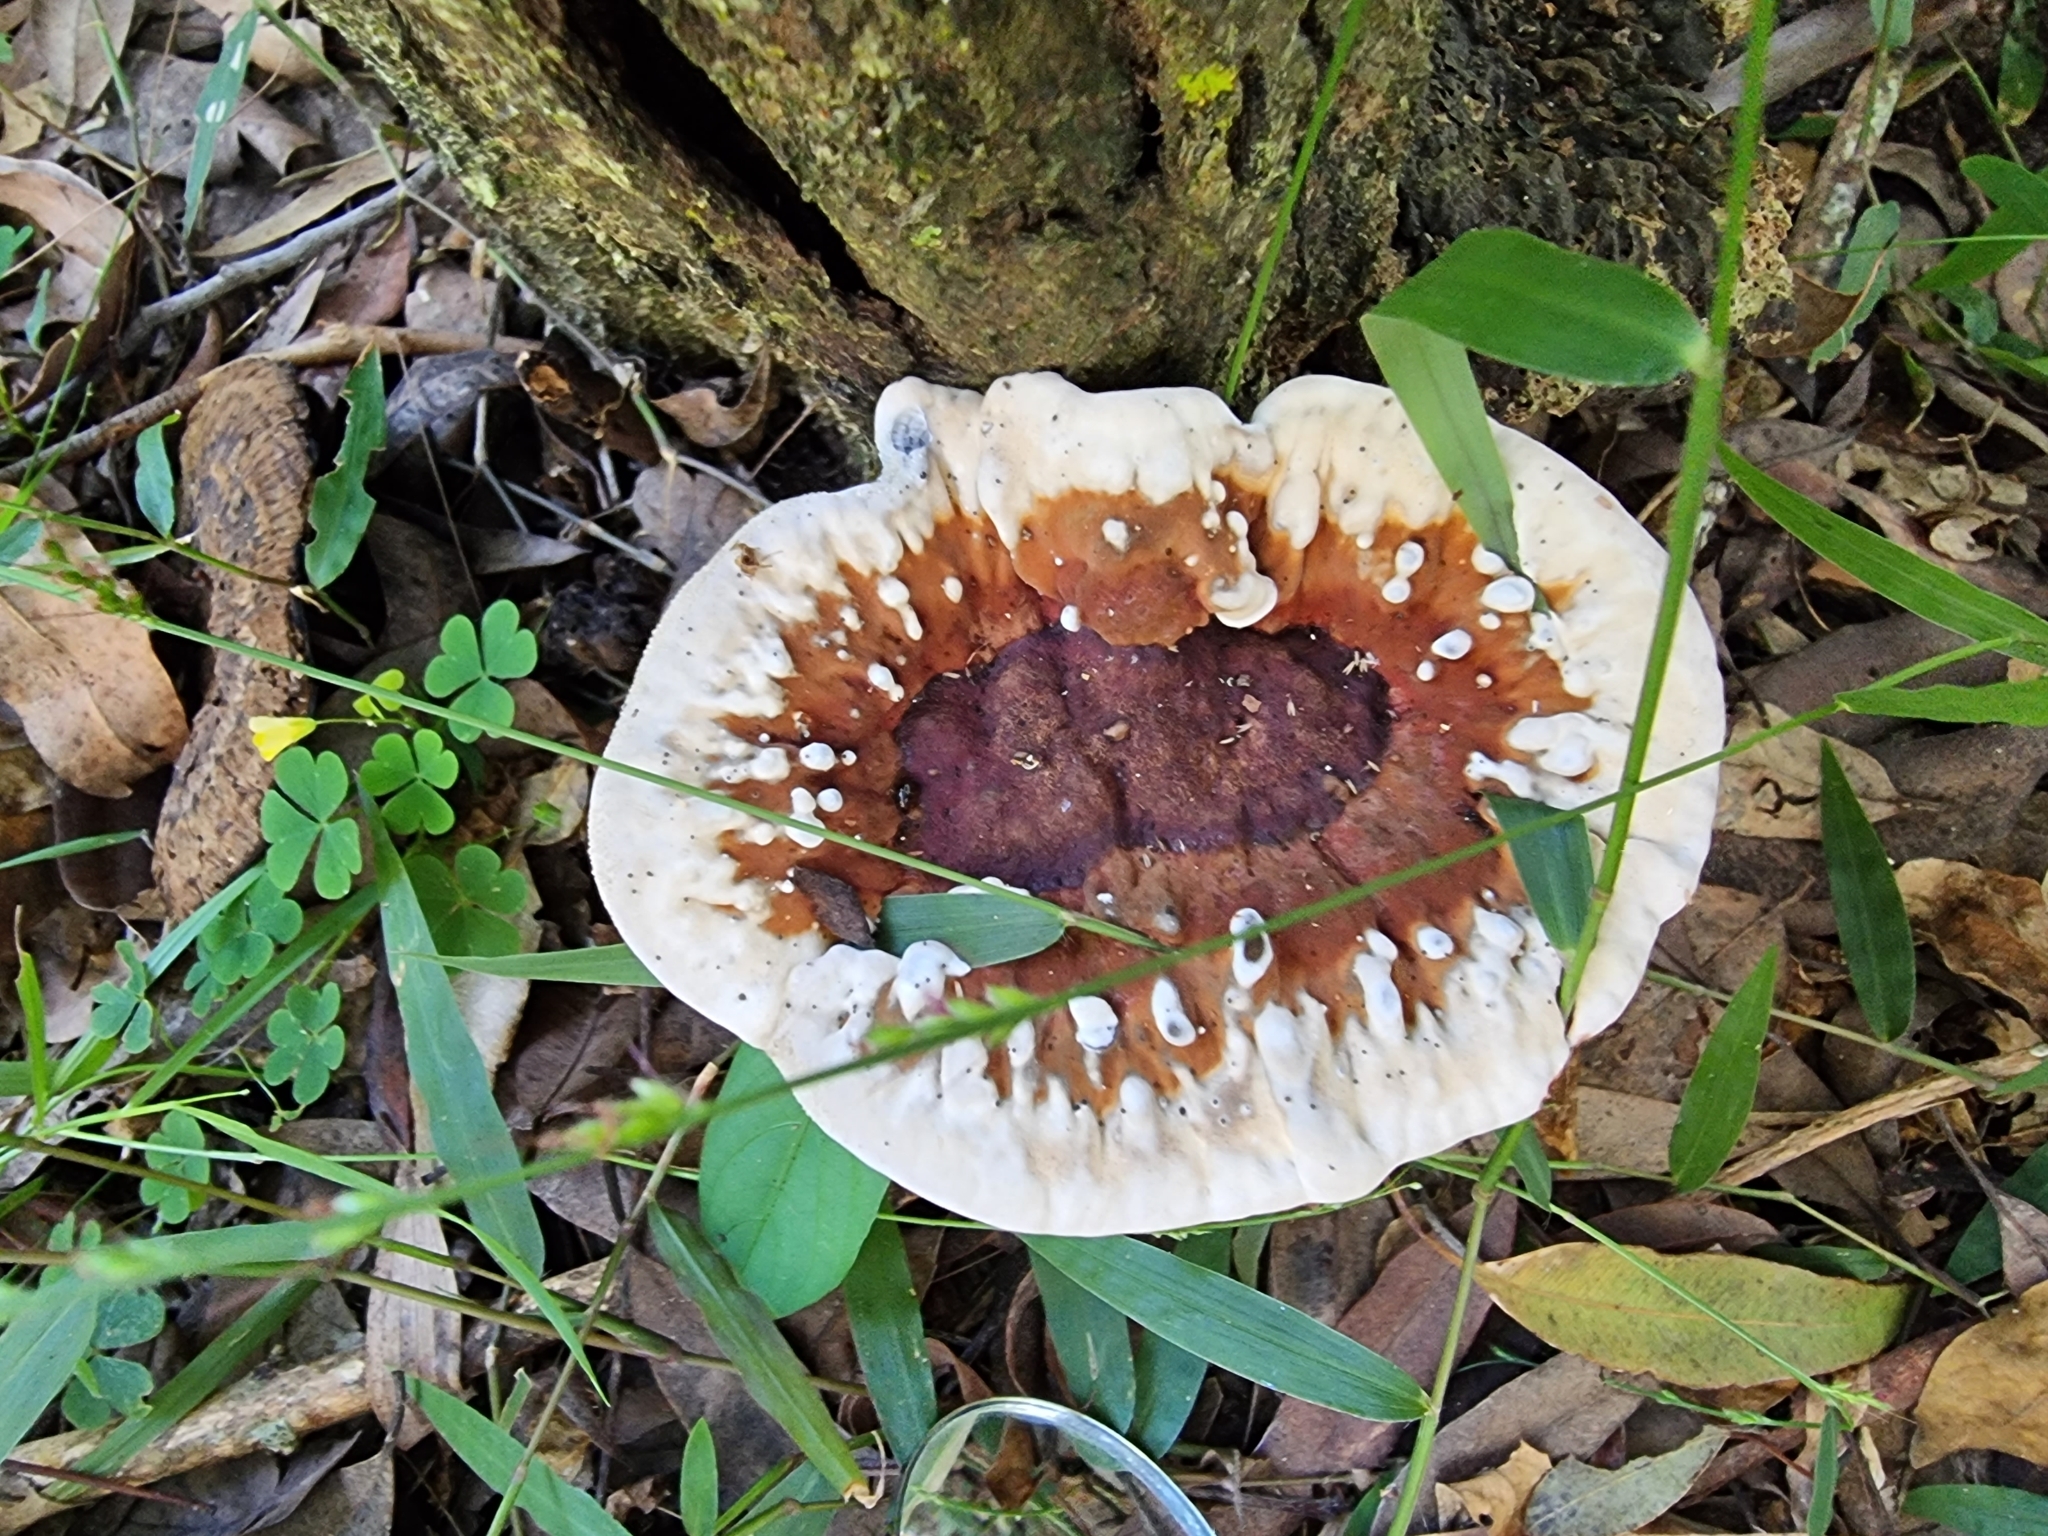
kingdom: Fungi
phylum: Basidiomycota
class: Agaricomycetes
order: Polyporales
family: Ganodermataceae
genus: Sanguinoderma
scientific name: Sanguinoderma rude
